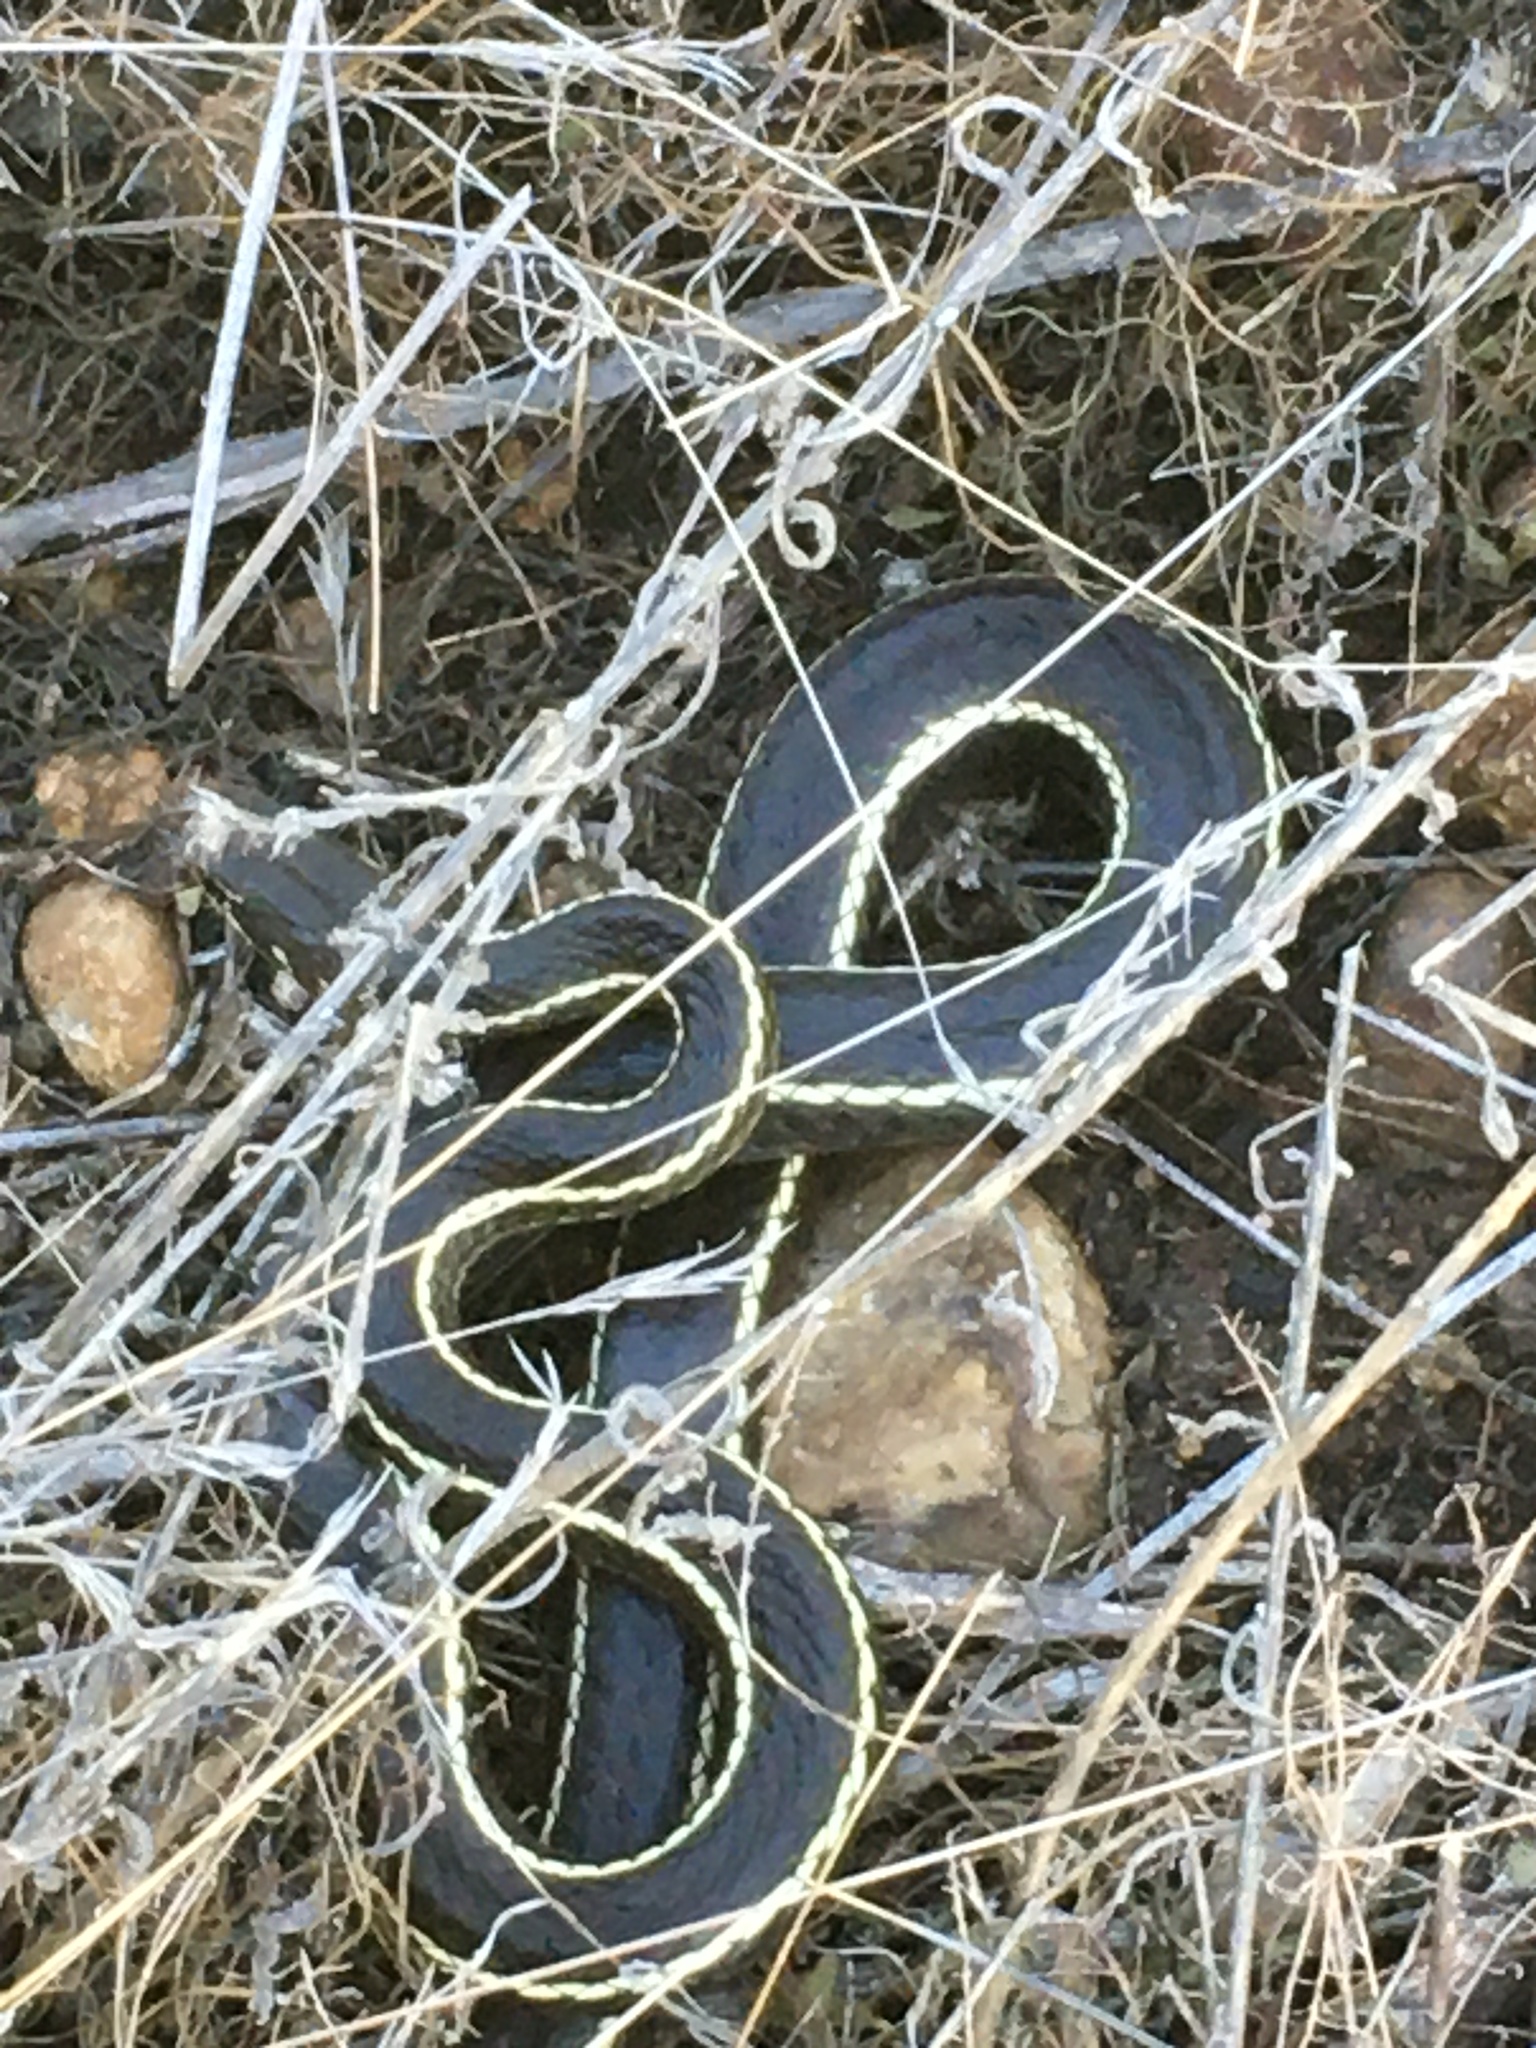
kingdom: Animalia
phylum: Chordata
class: Squamata
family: Colubridae
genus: Masticophis
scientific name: Masticophis lateralis
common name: Striped racer
